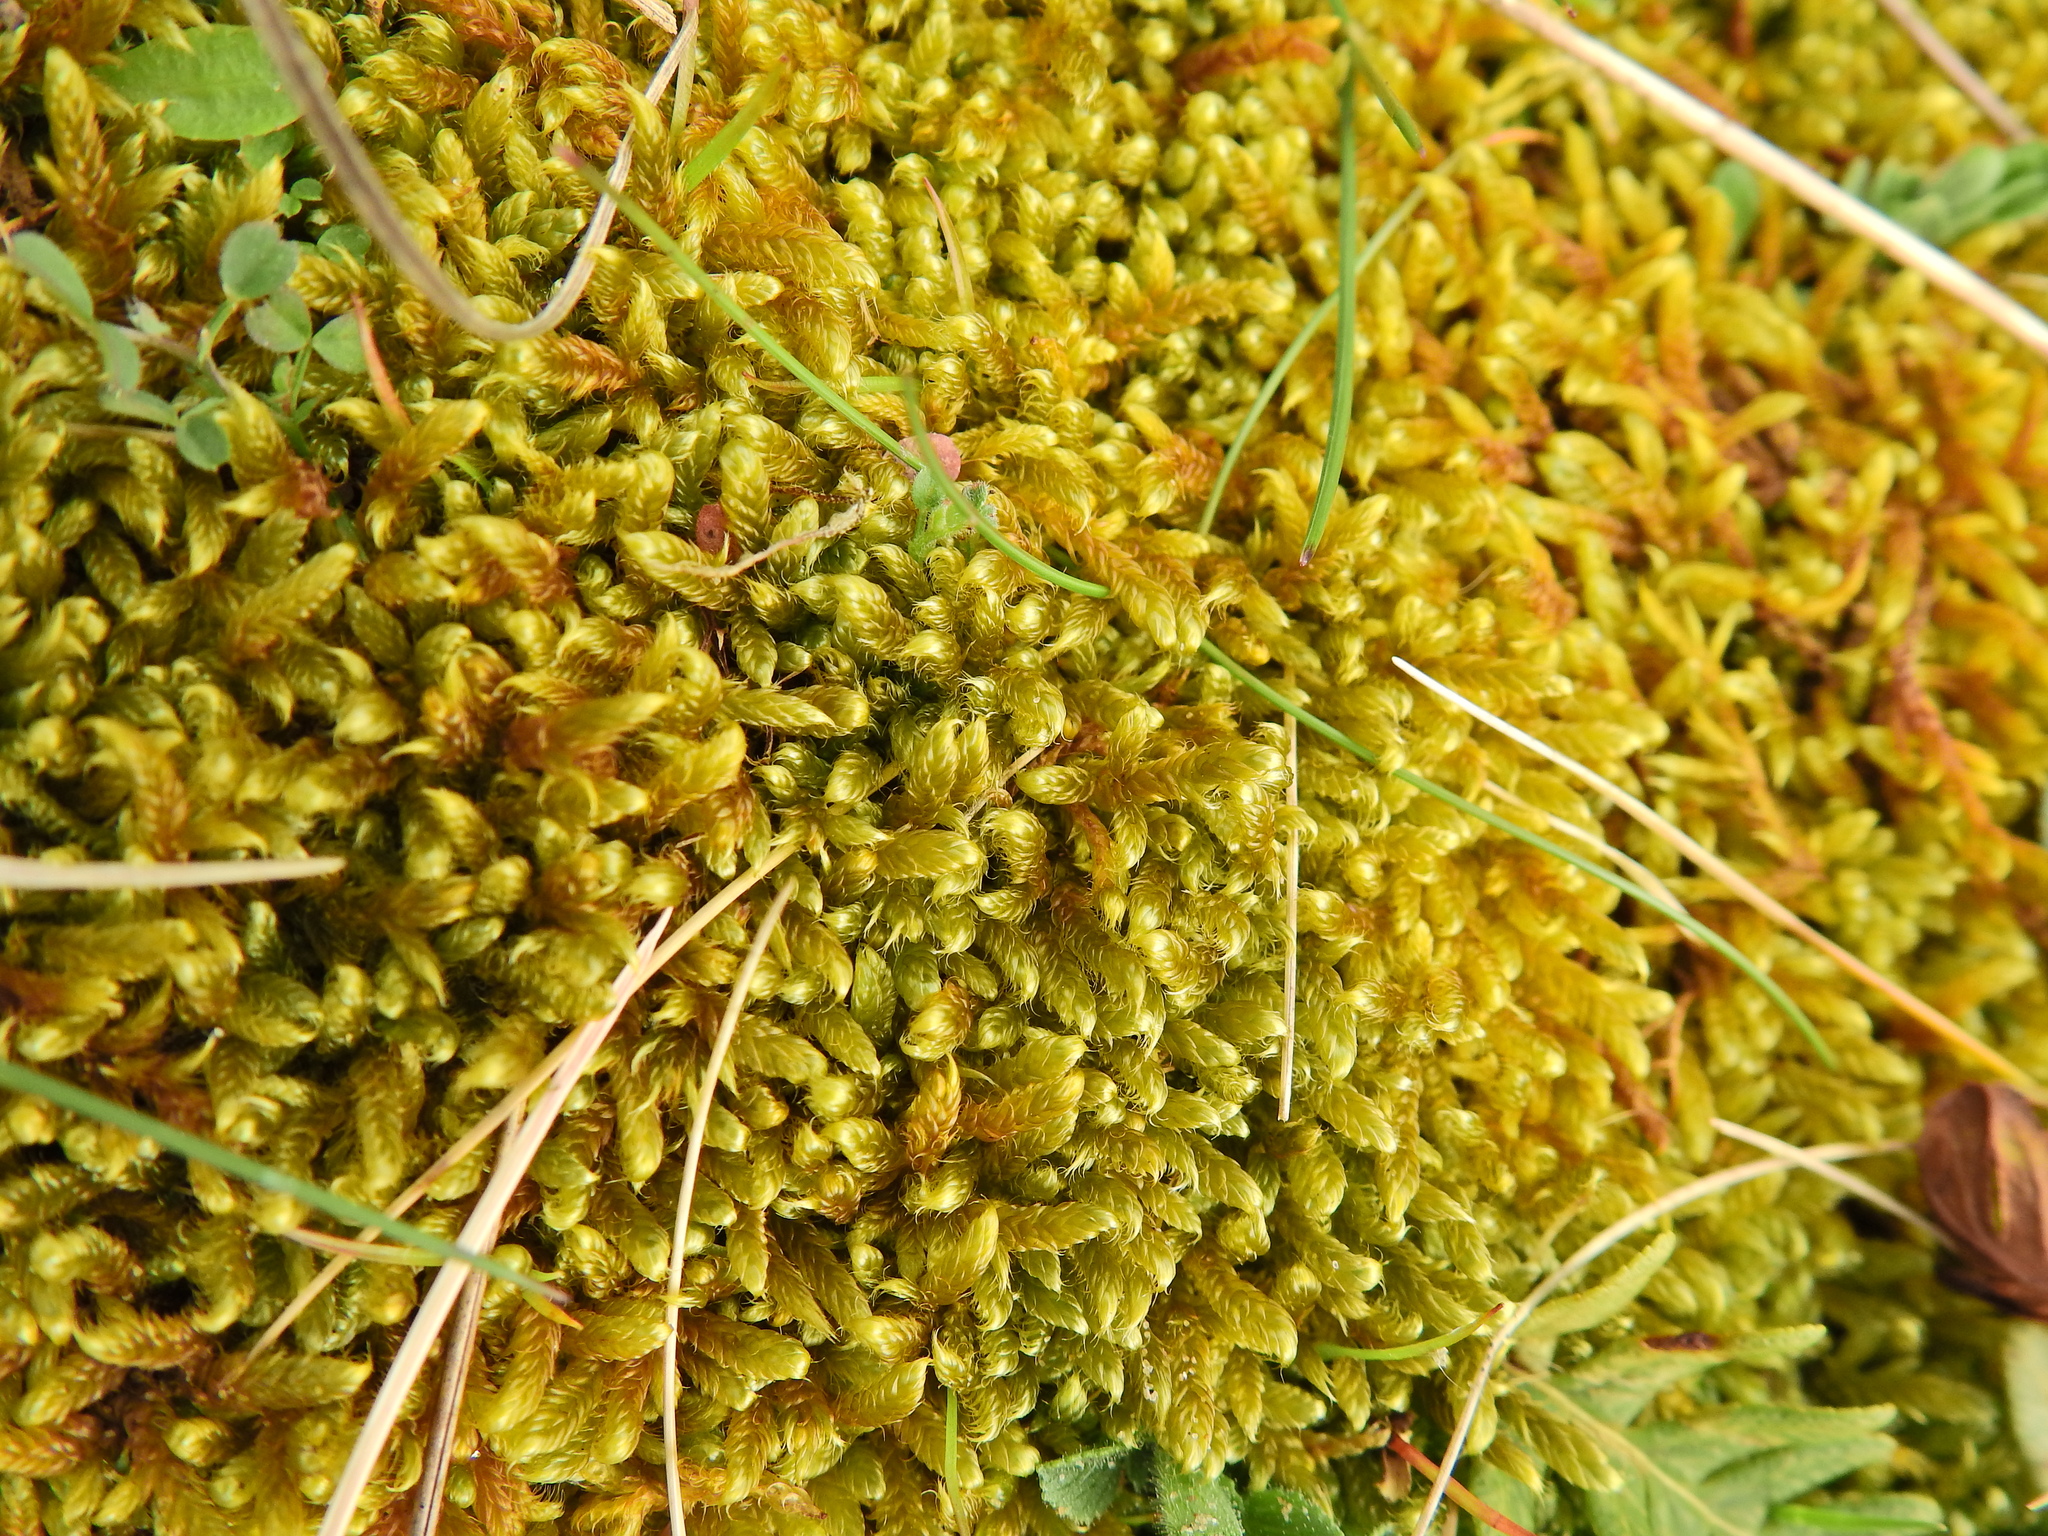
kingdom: Plantae
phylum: Bryophyta
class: Bryopsida
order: Hypnales
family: Hypnaceae
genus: Hypnum
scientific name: Hypnum cupressiforme
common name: Cypress-leaved plait-moss
